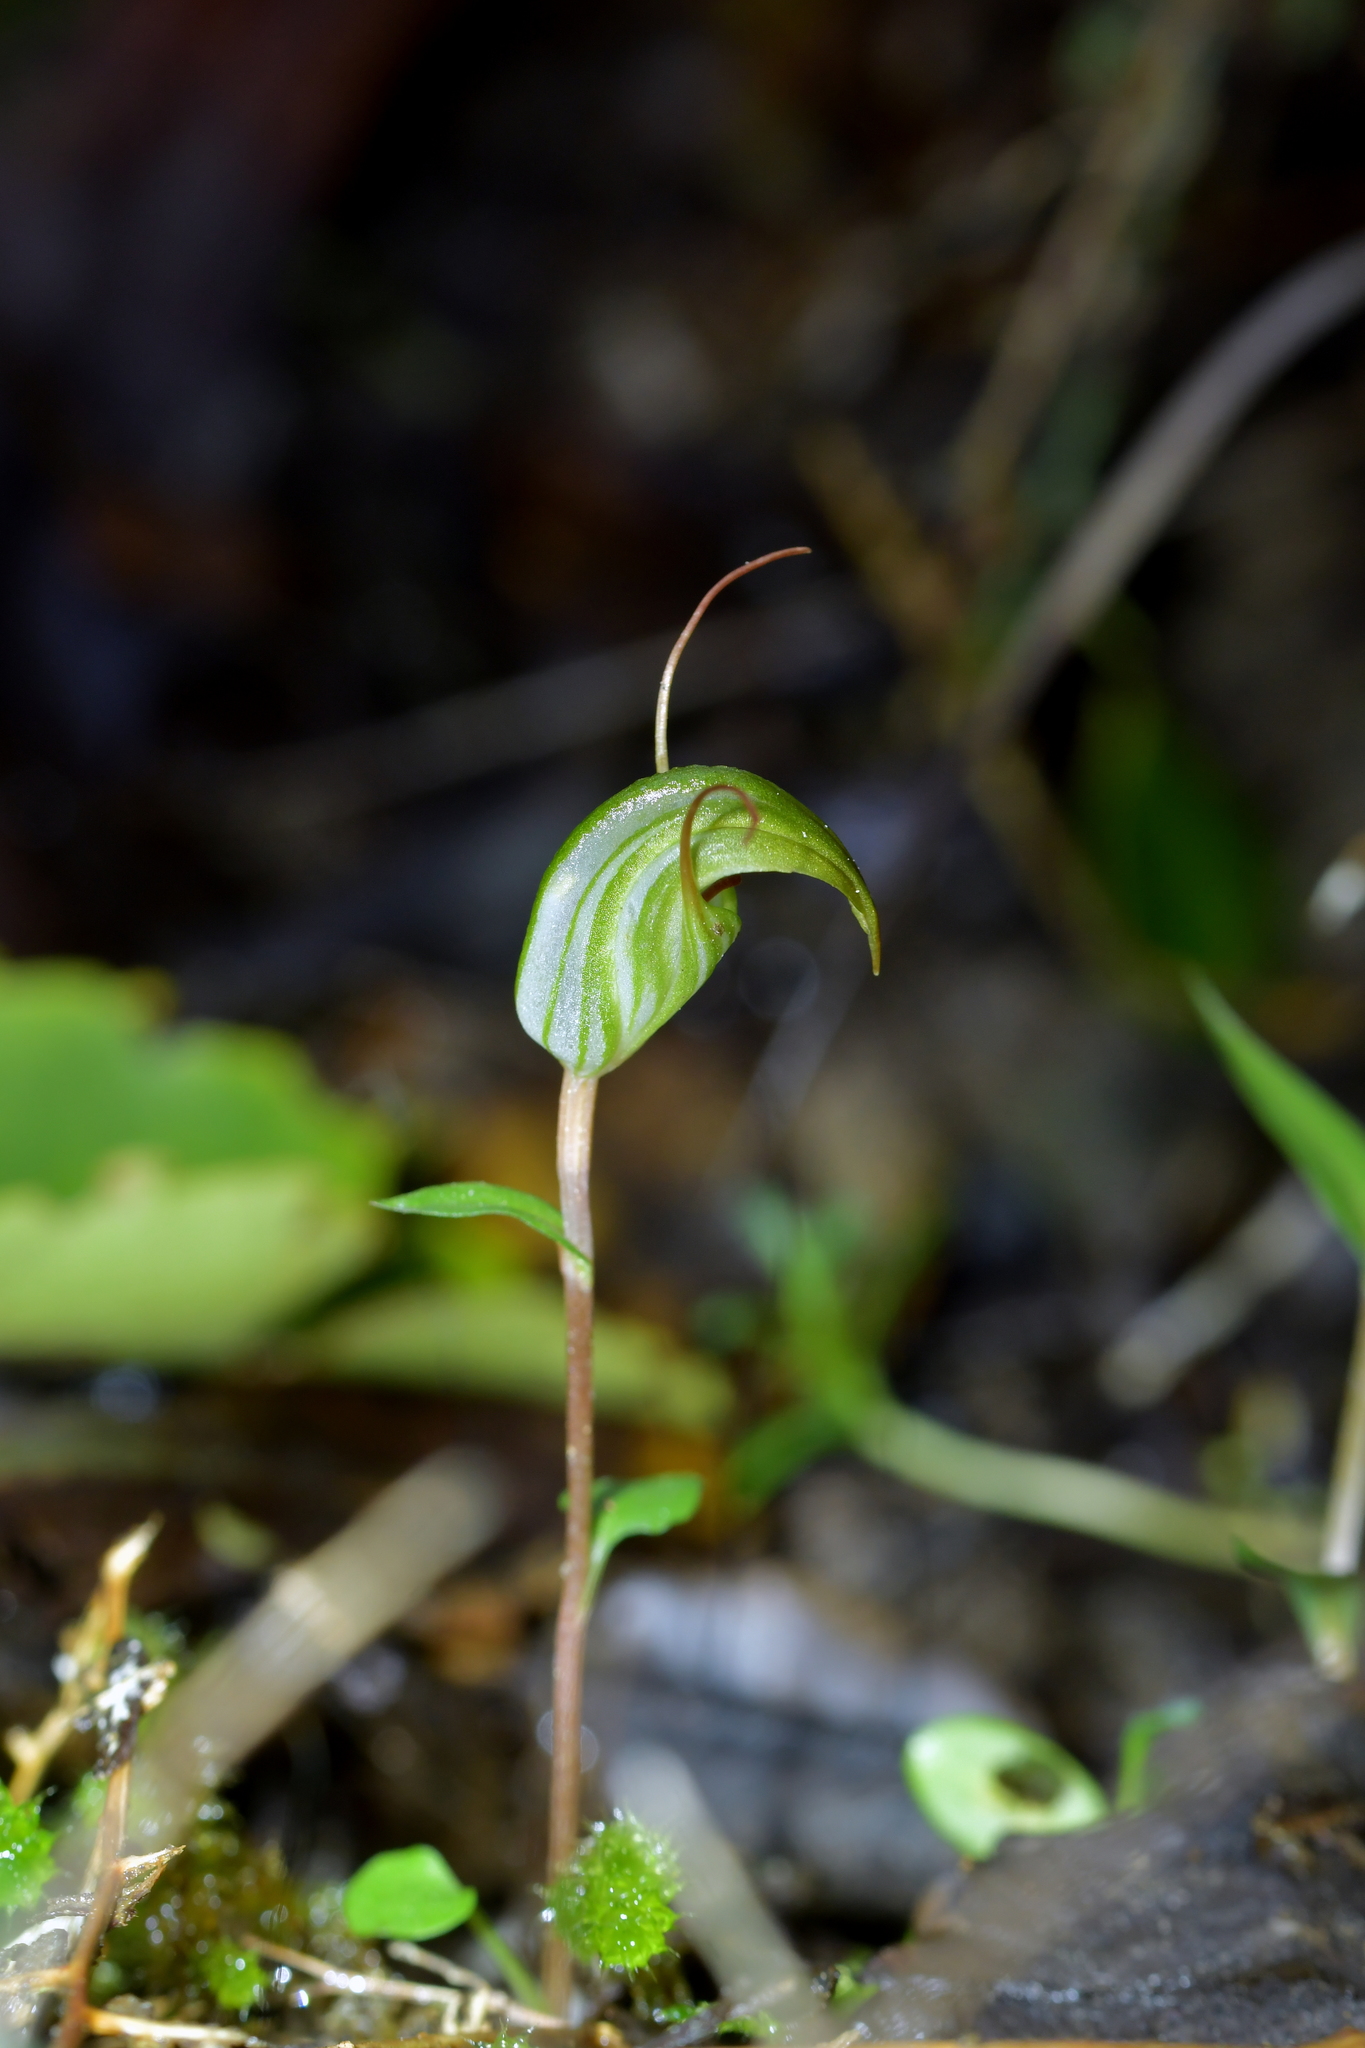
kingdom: Plantae
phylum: Tracheophyta
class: Liliopsida
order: Asparagales
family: Orchidaceae
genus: Pterostylis
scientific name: Pterostylis alobula
